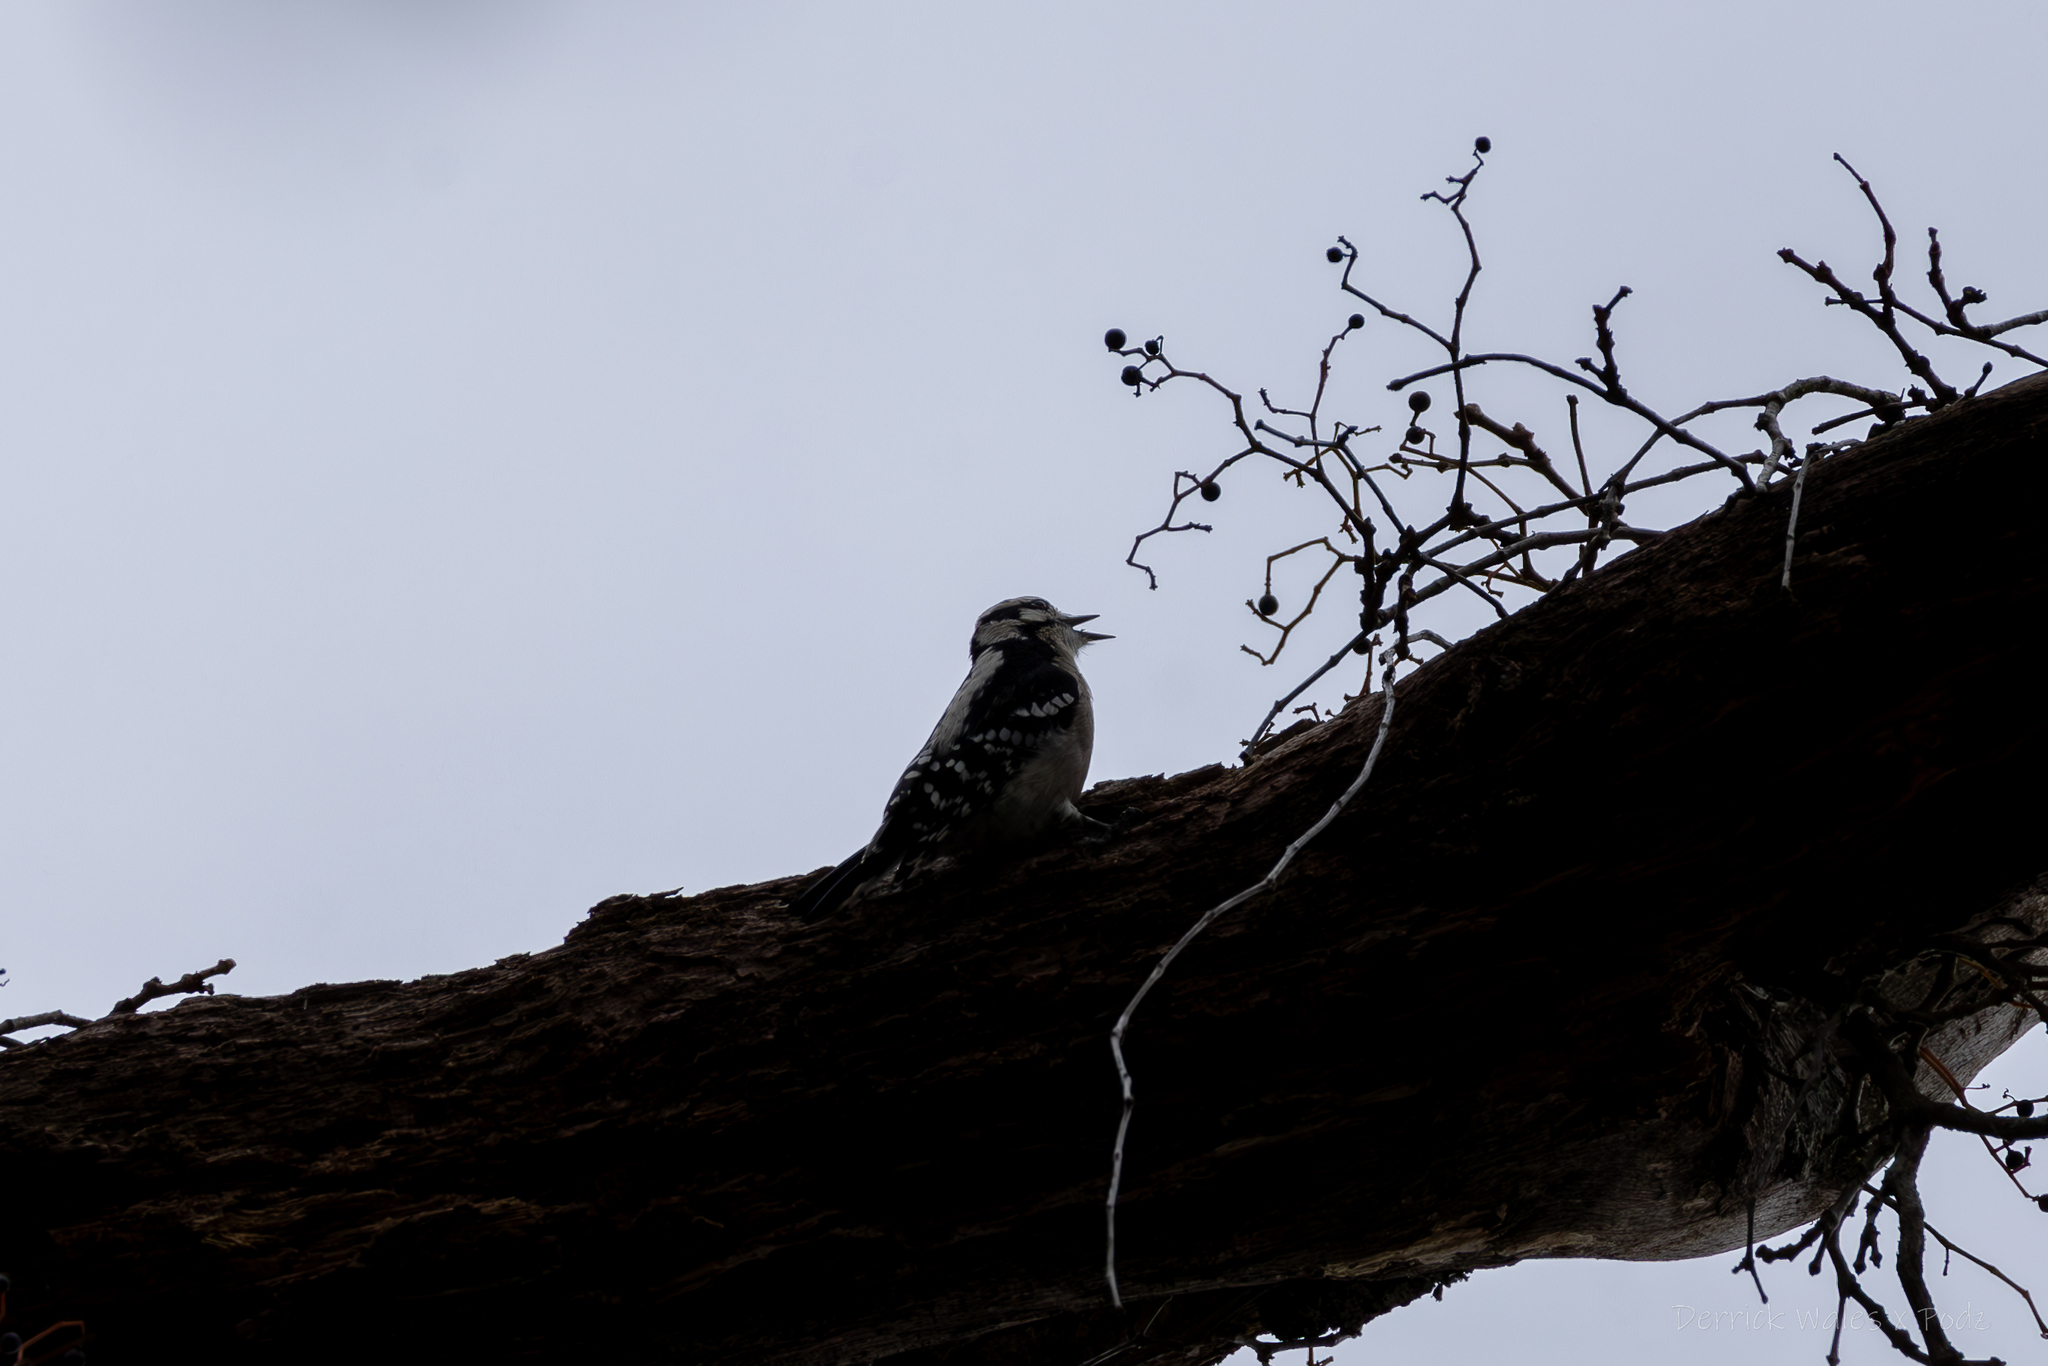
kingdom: Animalia
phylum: Chordata
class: Aves
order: Piciformes
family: Picidae
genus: Dryobates
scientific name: Dryobates pubescens
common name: Downy woodpecker
